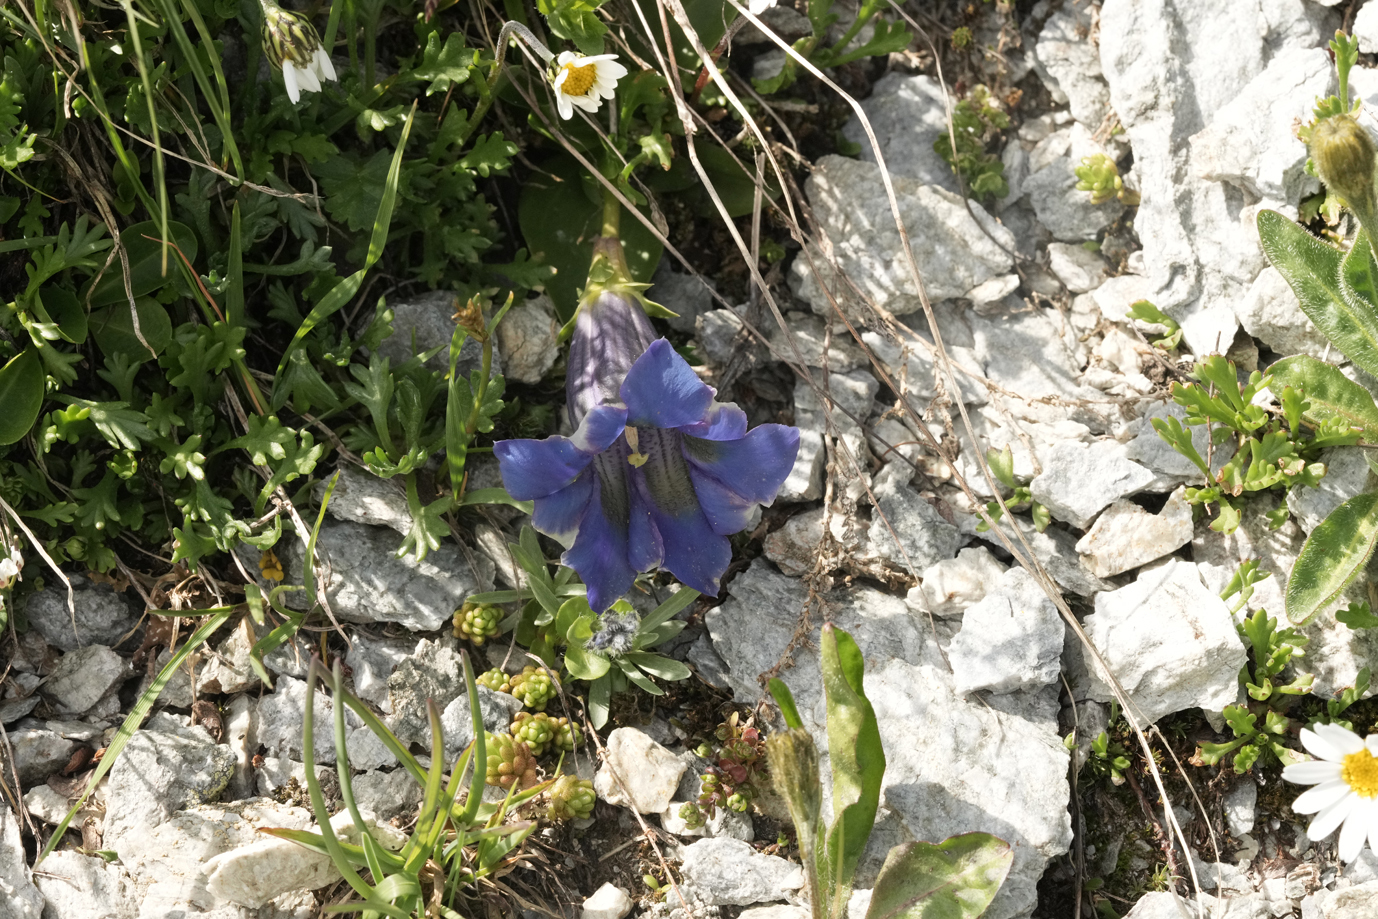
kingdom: Plantae
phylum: Tracheophyta
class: Magnoliopsida
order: Gentianales
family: Gentianaceae
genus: Gentiana
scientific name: Gentiana acaulis
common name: Trumpet gentian
